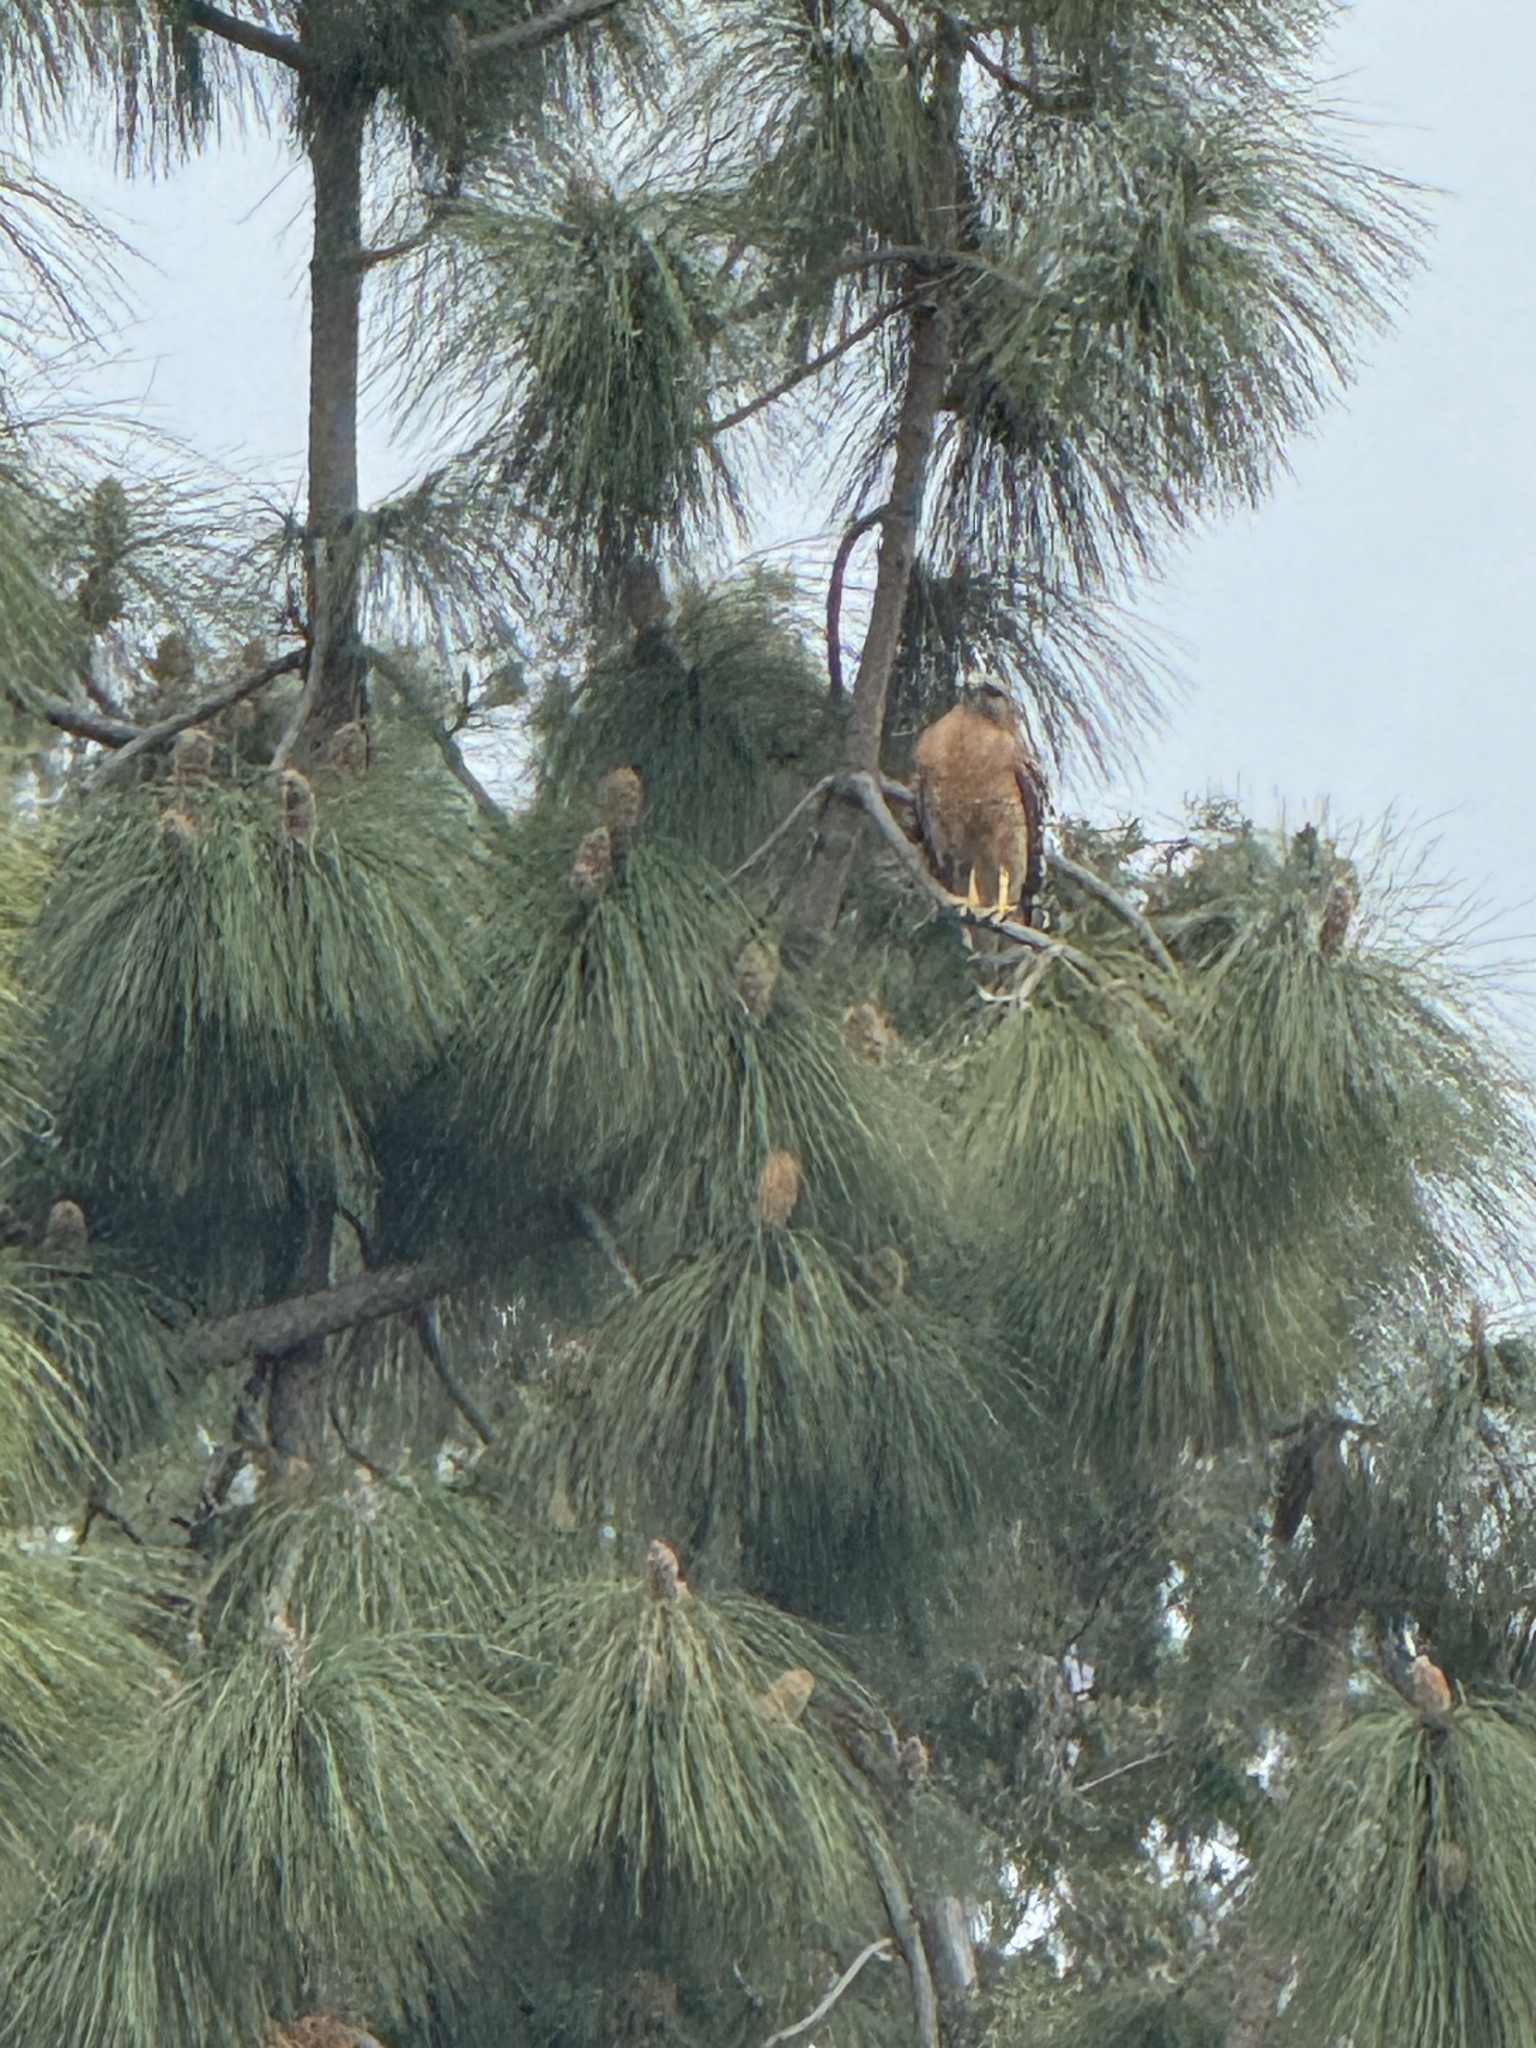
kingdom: Animalia
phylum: Chordata
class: Aves
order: Accipitriformes
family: Accipitridae
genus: Buteo
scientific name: Buteo lineatus
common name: Red-shouldered hawk
